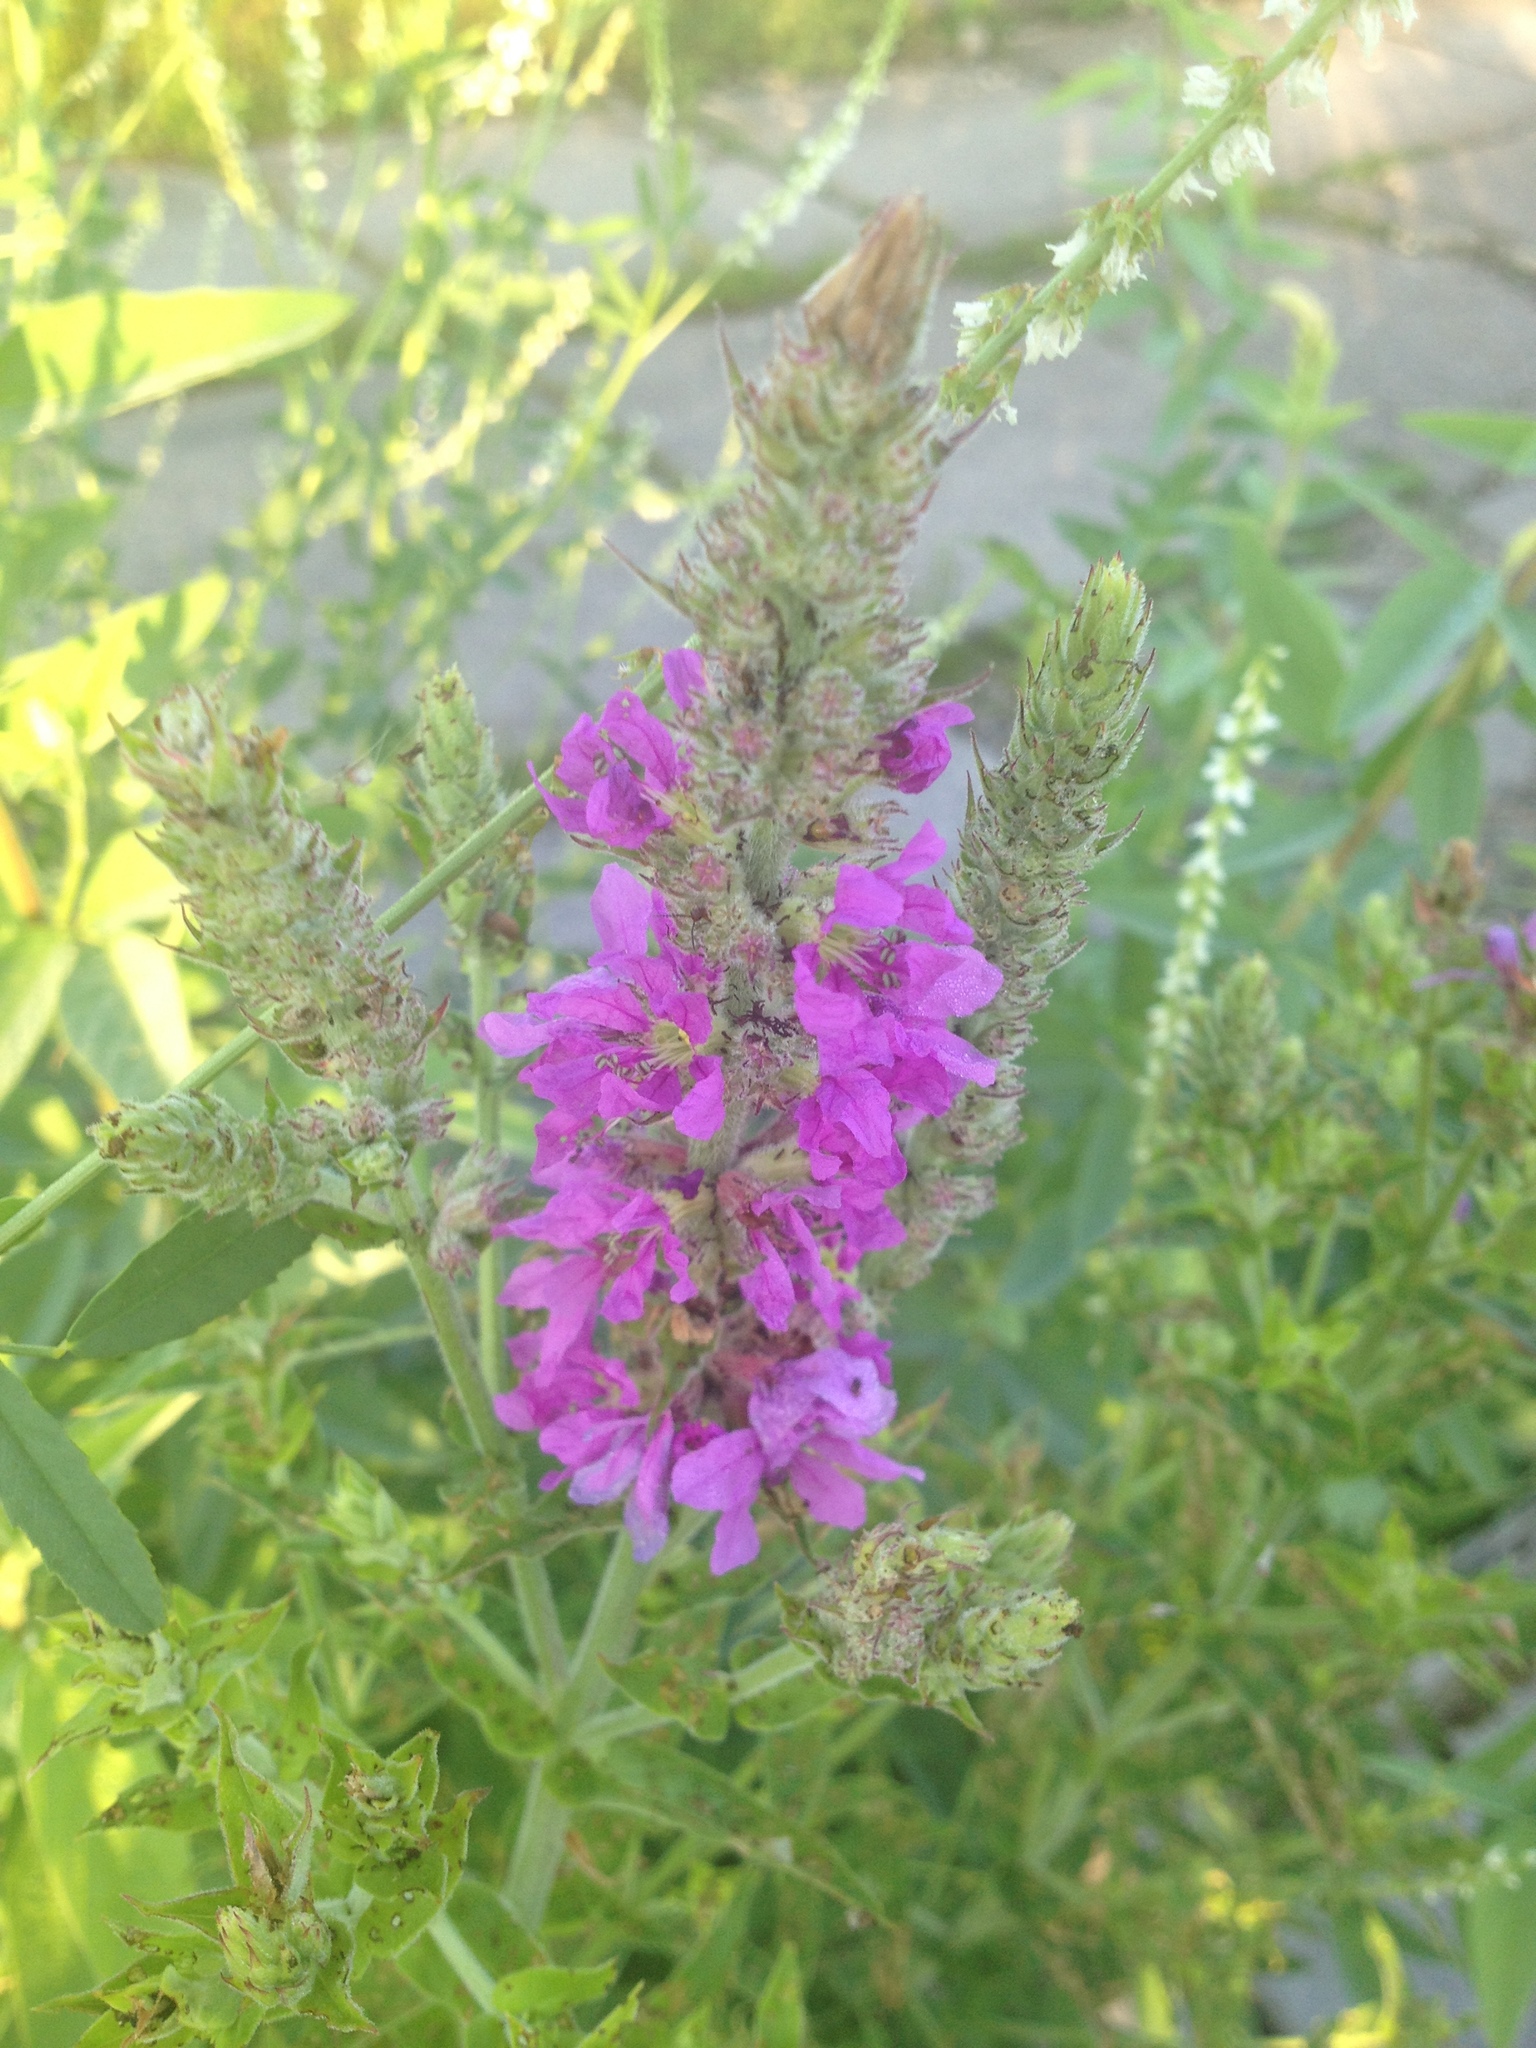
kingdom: Plantae
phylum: Tracheophyta
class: Magnoliopsida
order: Myrtales
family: Lythraceae
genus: Lythrum
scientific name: Lythrum salicaria
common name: Purple loosestrife
